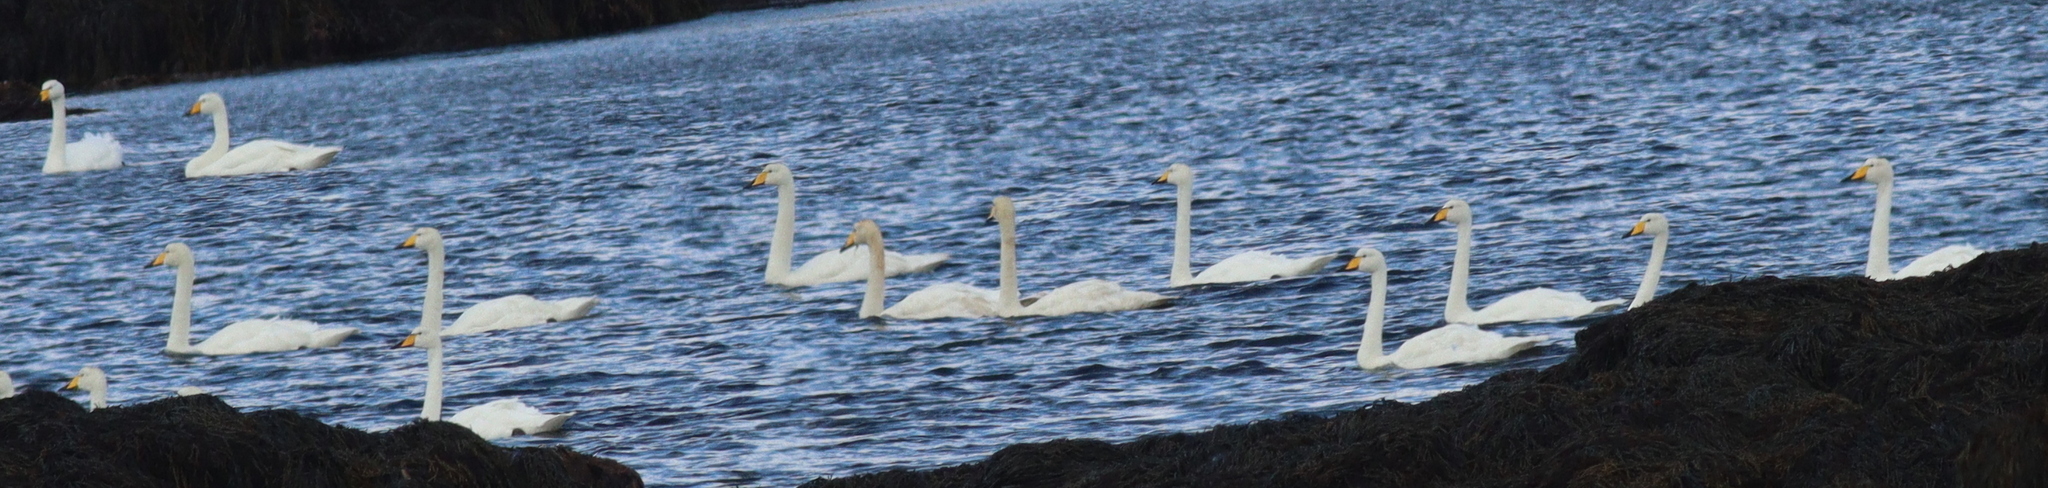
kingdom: Animalia
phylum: Chordata
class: Aves
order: Anseriformes
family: Anatidae
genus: Cygnus
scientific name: Cygnus cygnus
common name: Whooper swan
